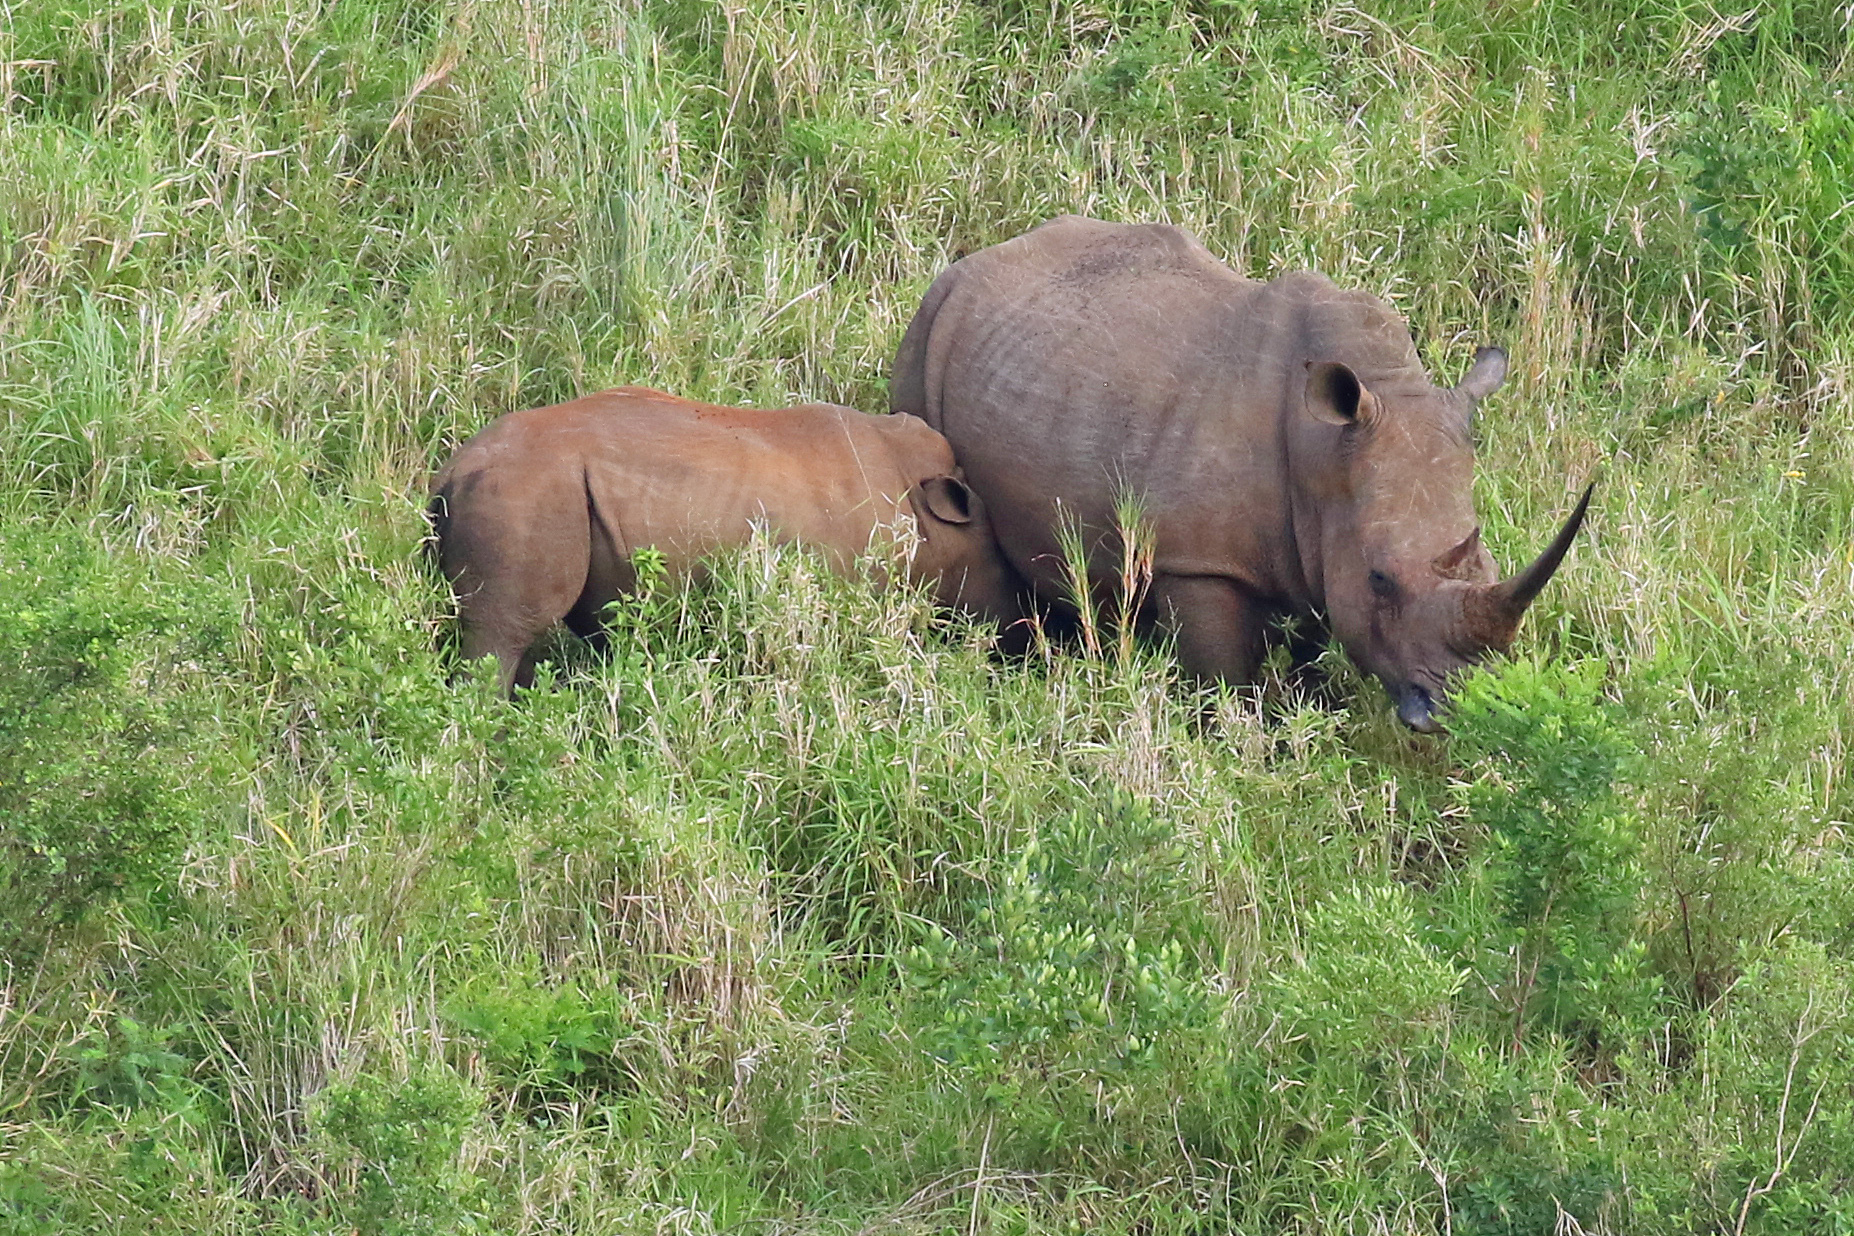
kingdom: Animalia
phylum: Chordata
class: Mammalia
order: Perissodactyla
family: Rhinocerotidae
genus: Ceratotherium
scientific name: Ceratotherium simum
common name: White rhinoceros
